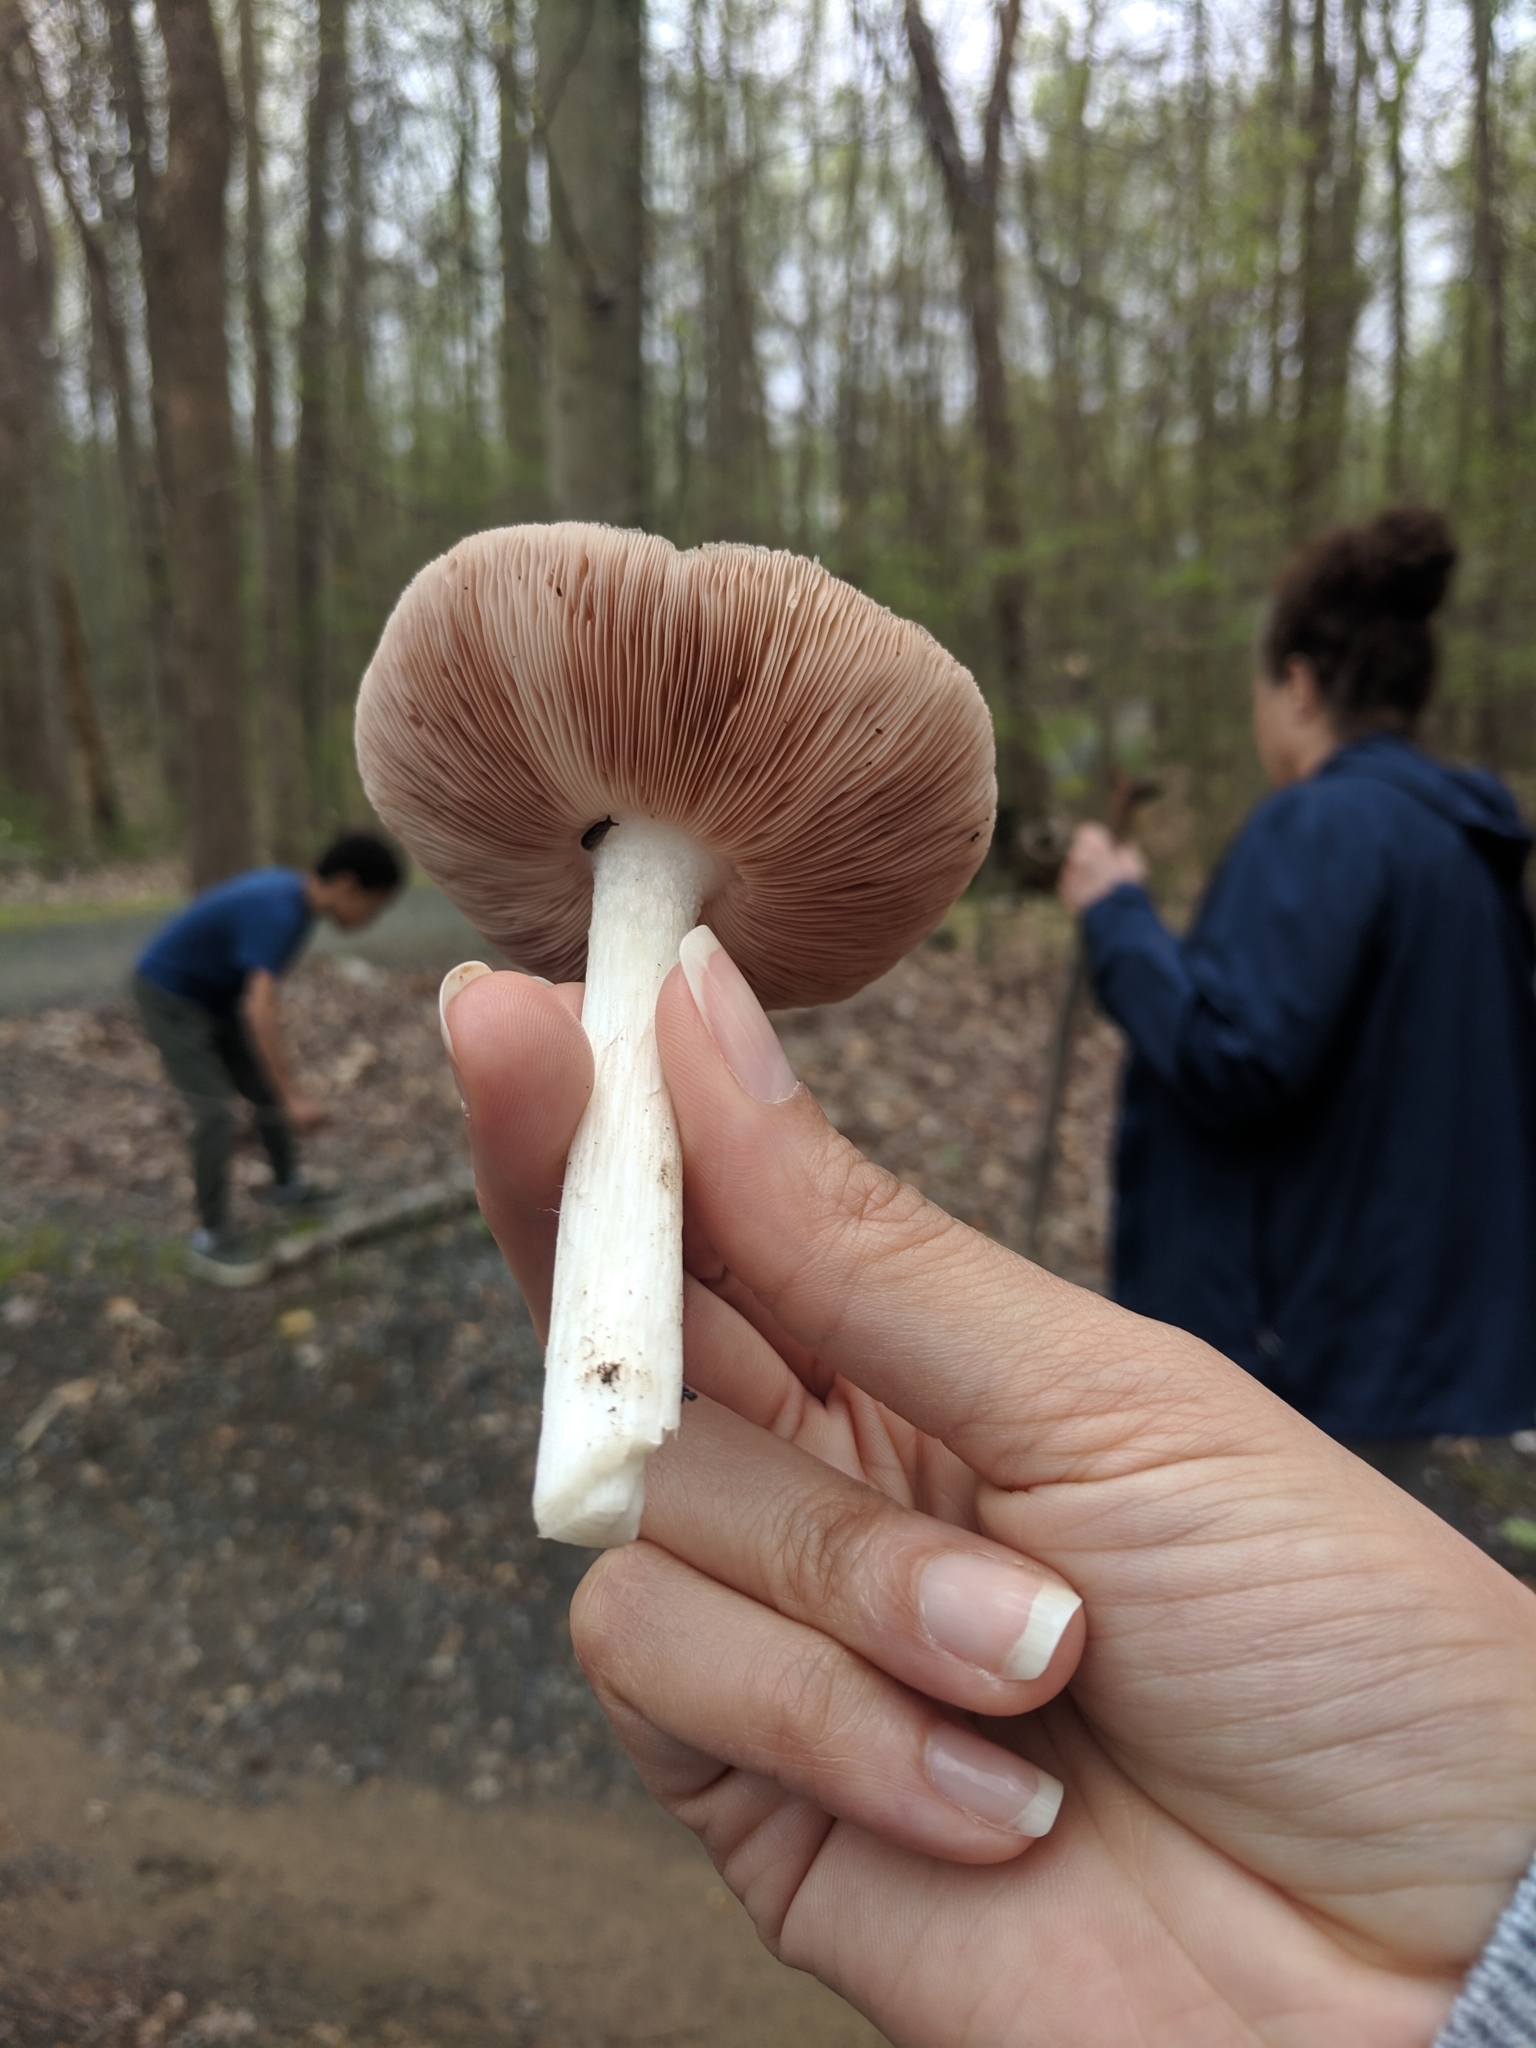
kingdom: Fungi
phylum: Basidiomycota
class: Agaricomycetes
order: Agaricales
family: Pluteaceae
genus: Pluteus
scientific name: Pluteus cervinus
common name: Deer shield
